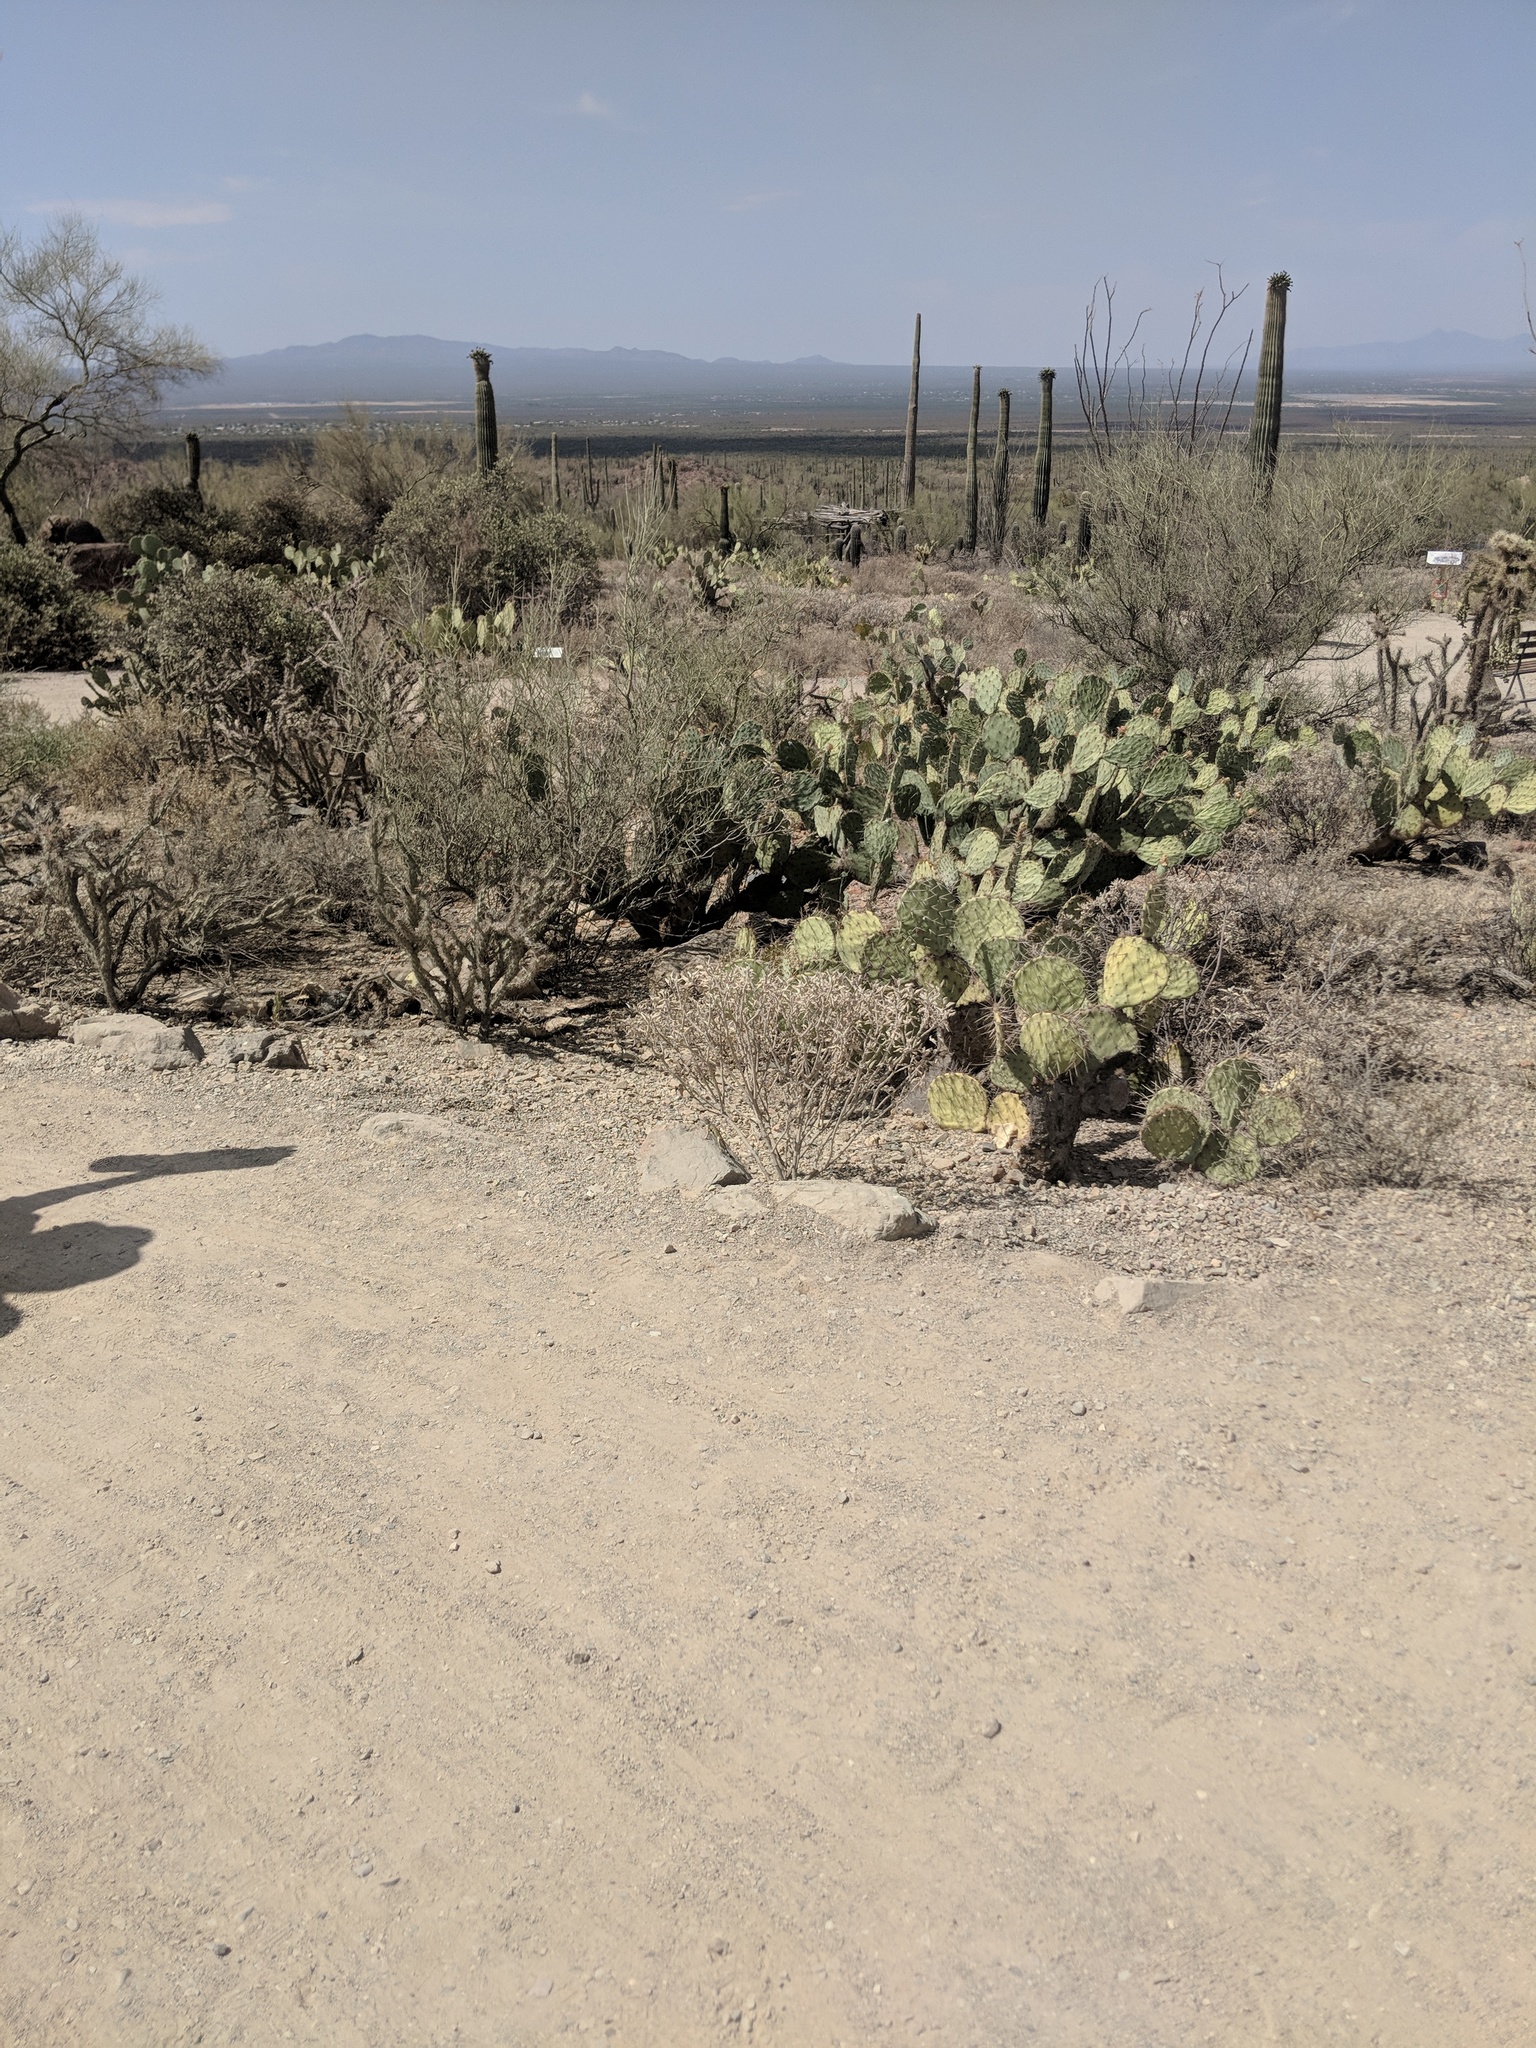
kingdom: Animalia
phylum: Chordata
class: Squamata
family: Phrynosomatidae
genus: Callisaurus
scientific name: Callisaurus draconoides
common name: Zebra-tailed lizard
